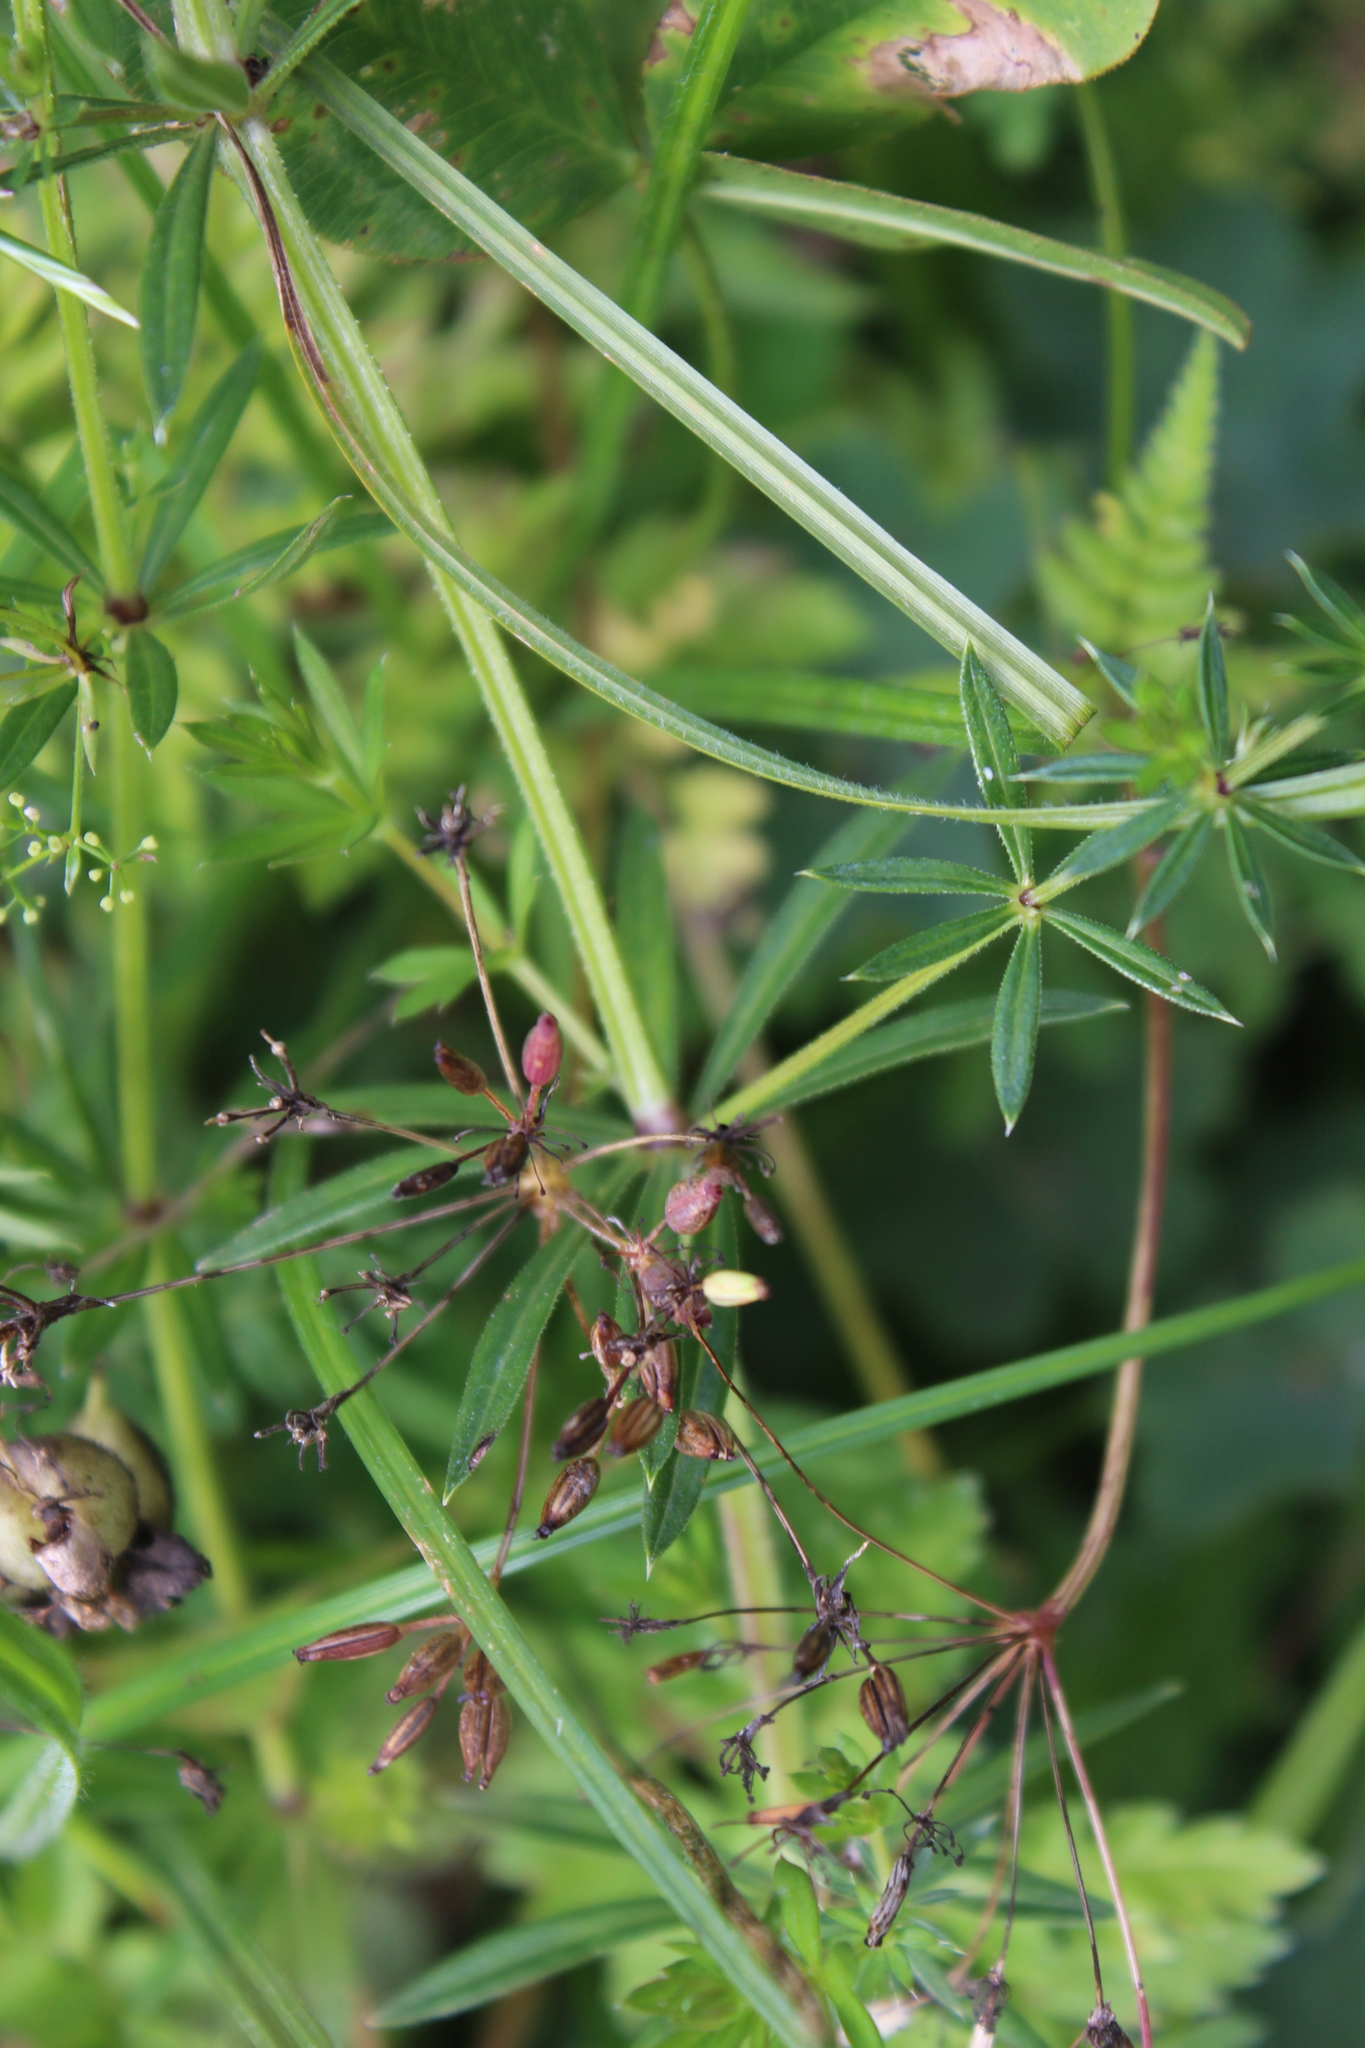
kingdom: Plantae
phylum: Tracheophyta
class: Magnoliopsida
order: Gentianales
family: Rubiaceae
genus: Galium
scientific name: Galium rivale
